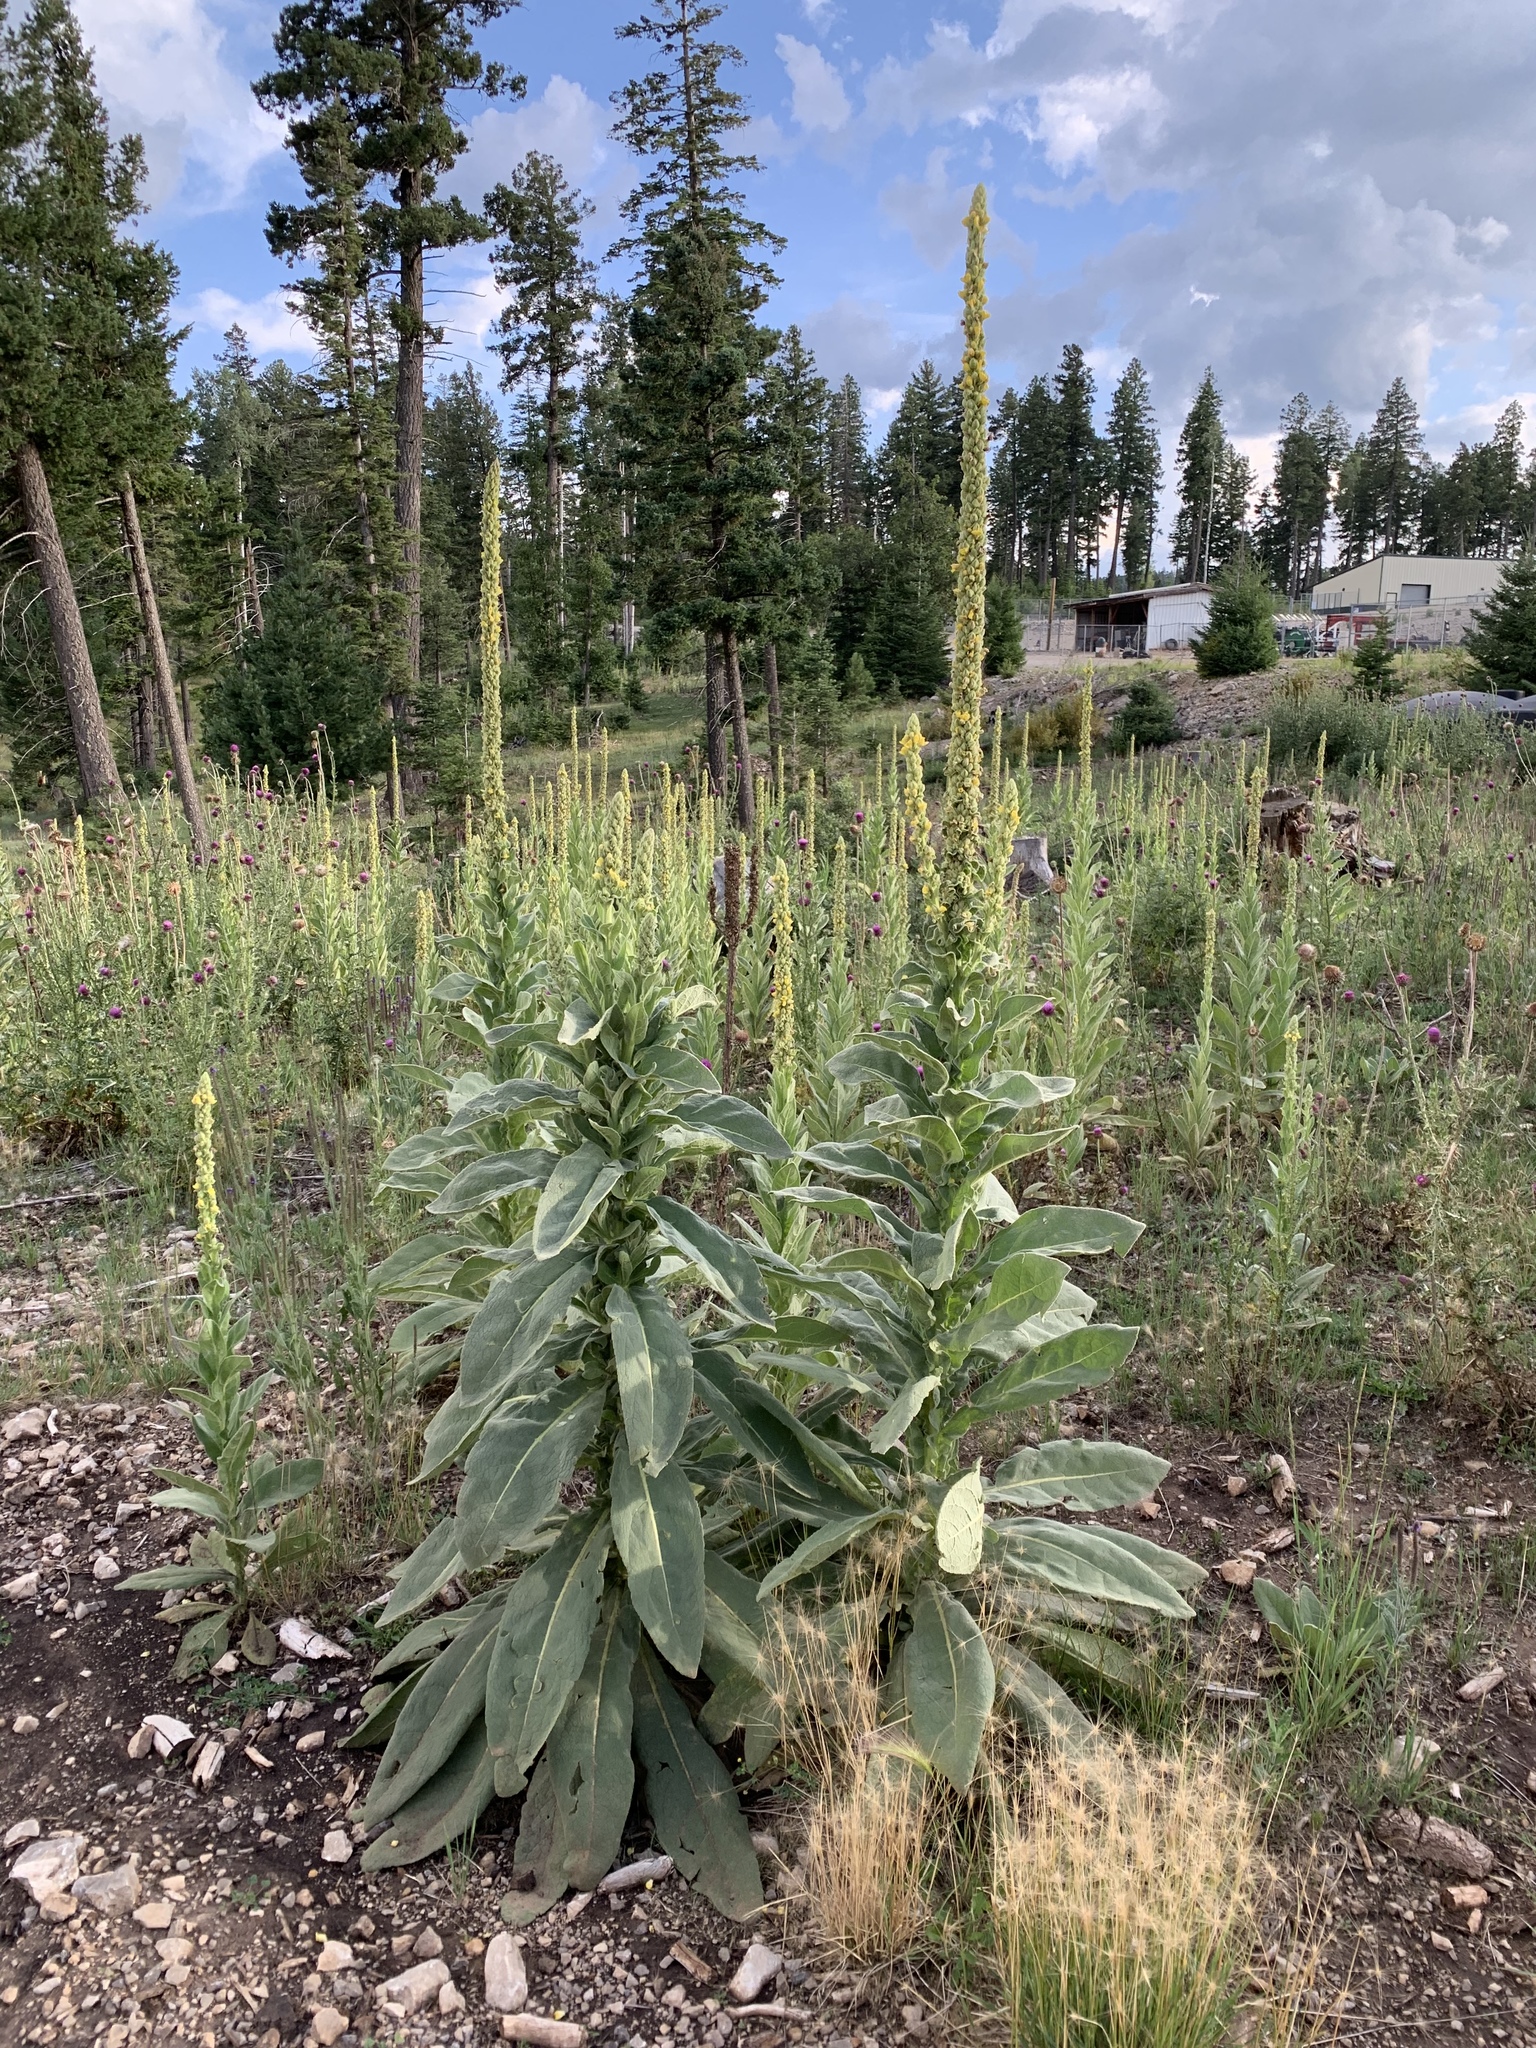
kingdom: Plantae
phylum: Tracheophyta
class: Magnoliopsida
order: Lamiales
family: Scrophulariaceae
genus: Verbascum
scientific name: Verbascum thapsus
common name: Common mullein
